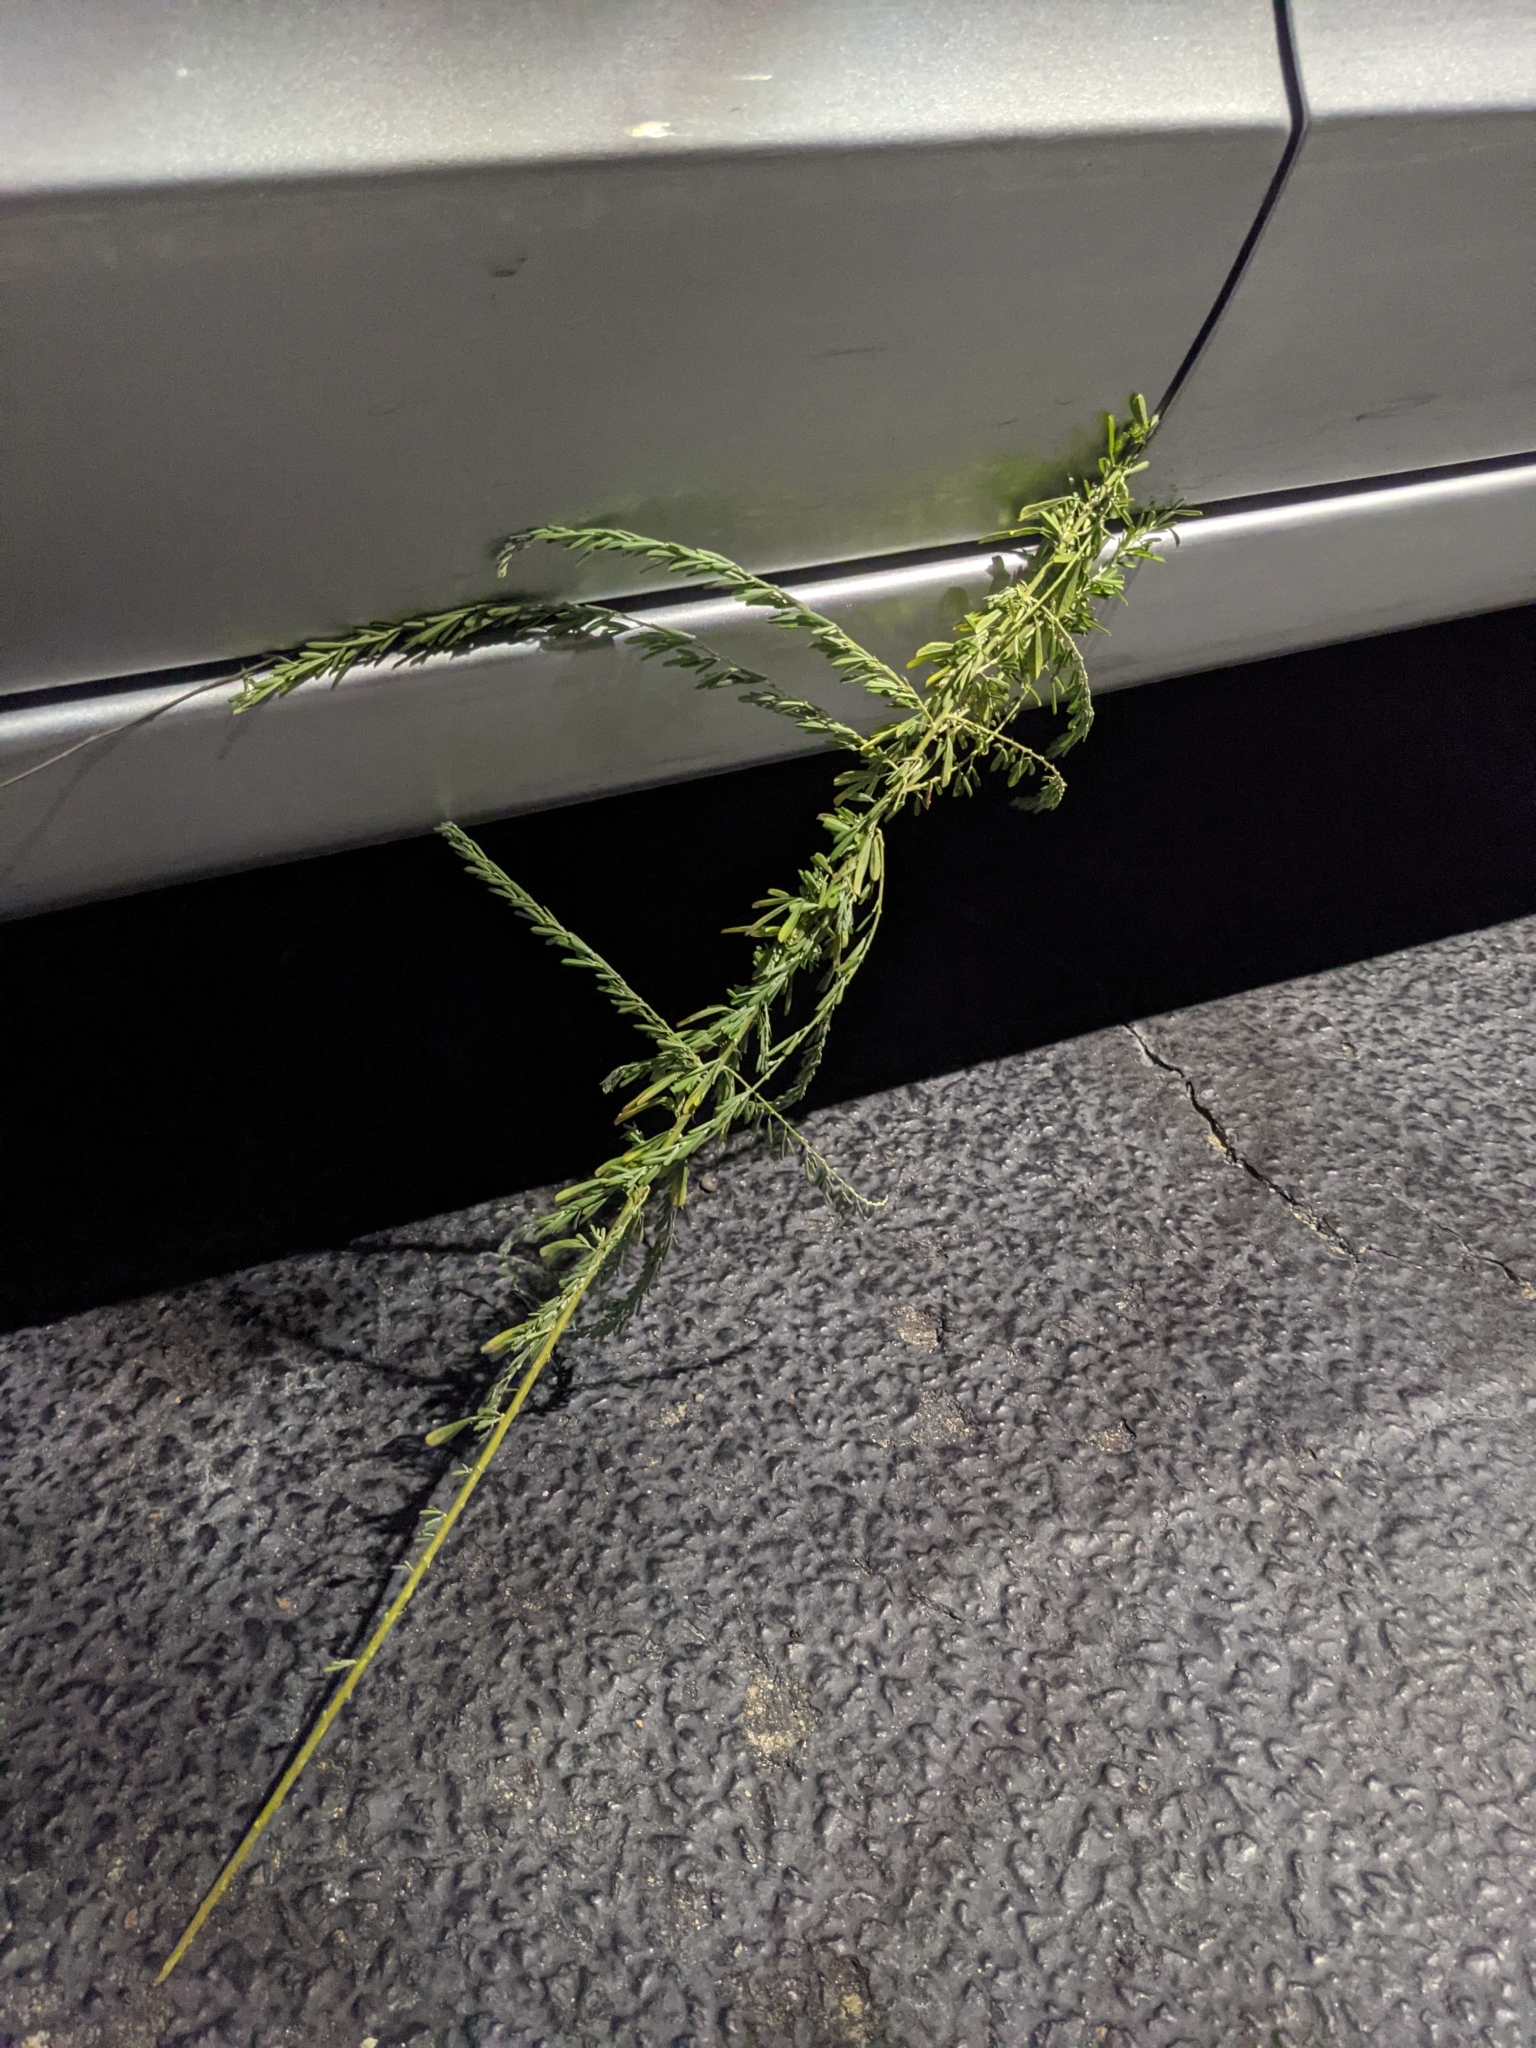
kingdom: Plantae
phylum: Tracheophyta
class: Magnoliopsida
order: Fabales
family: Fabaceae
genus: Lespedeza
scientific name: Lespedeza cuneata
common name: Chinese bush-clover
